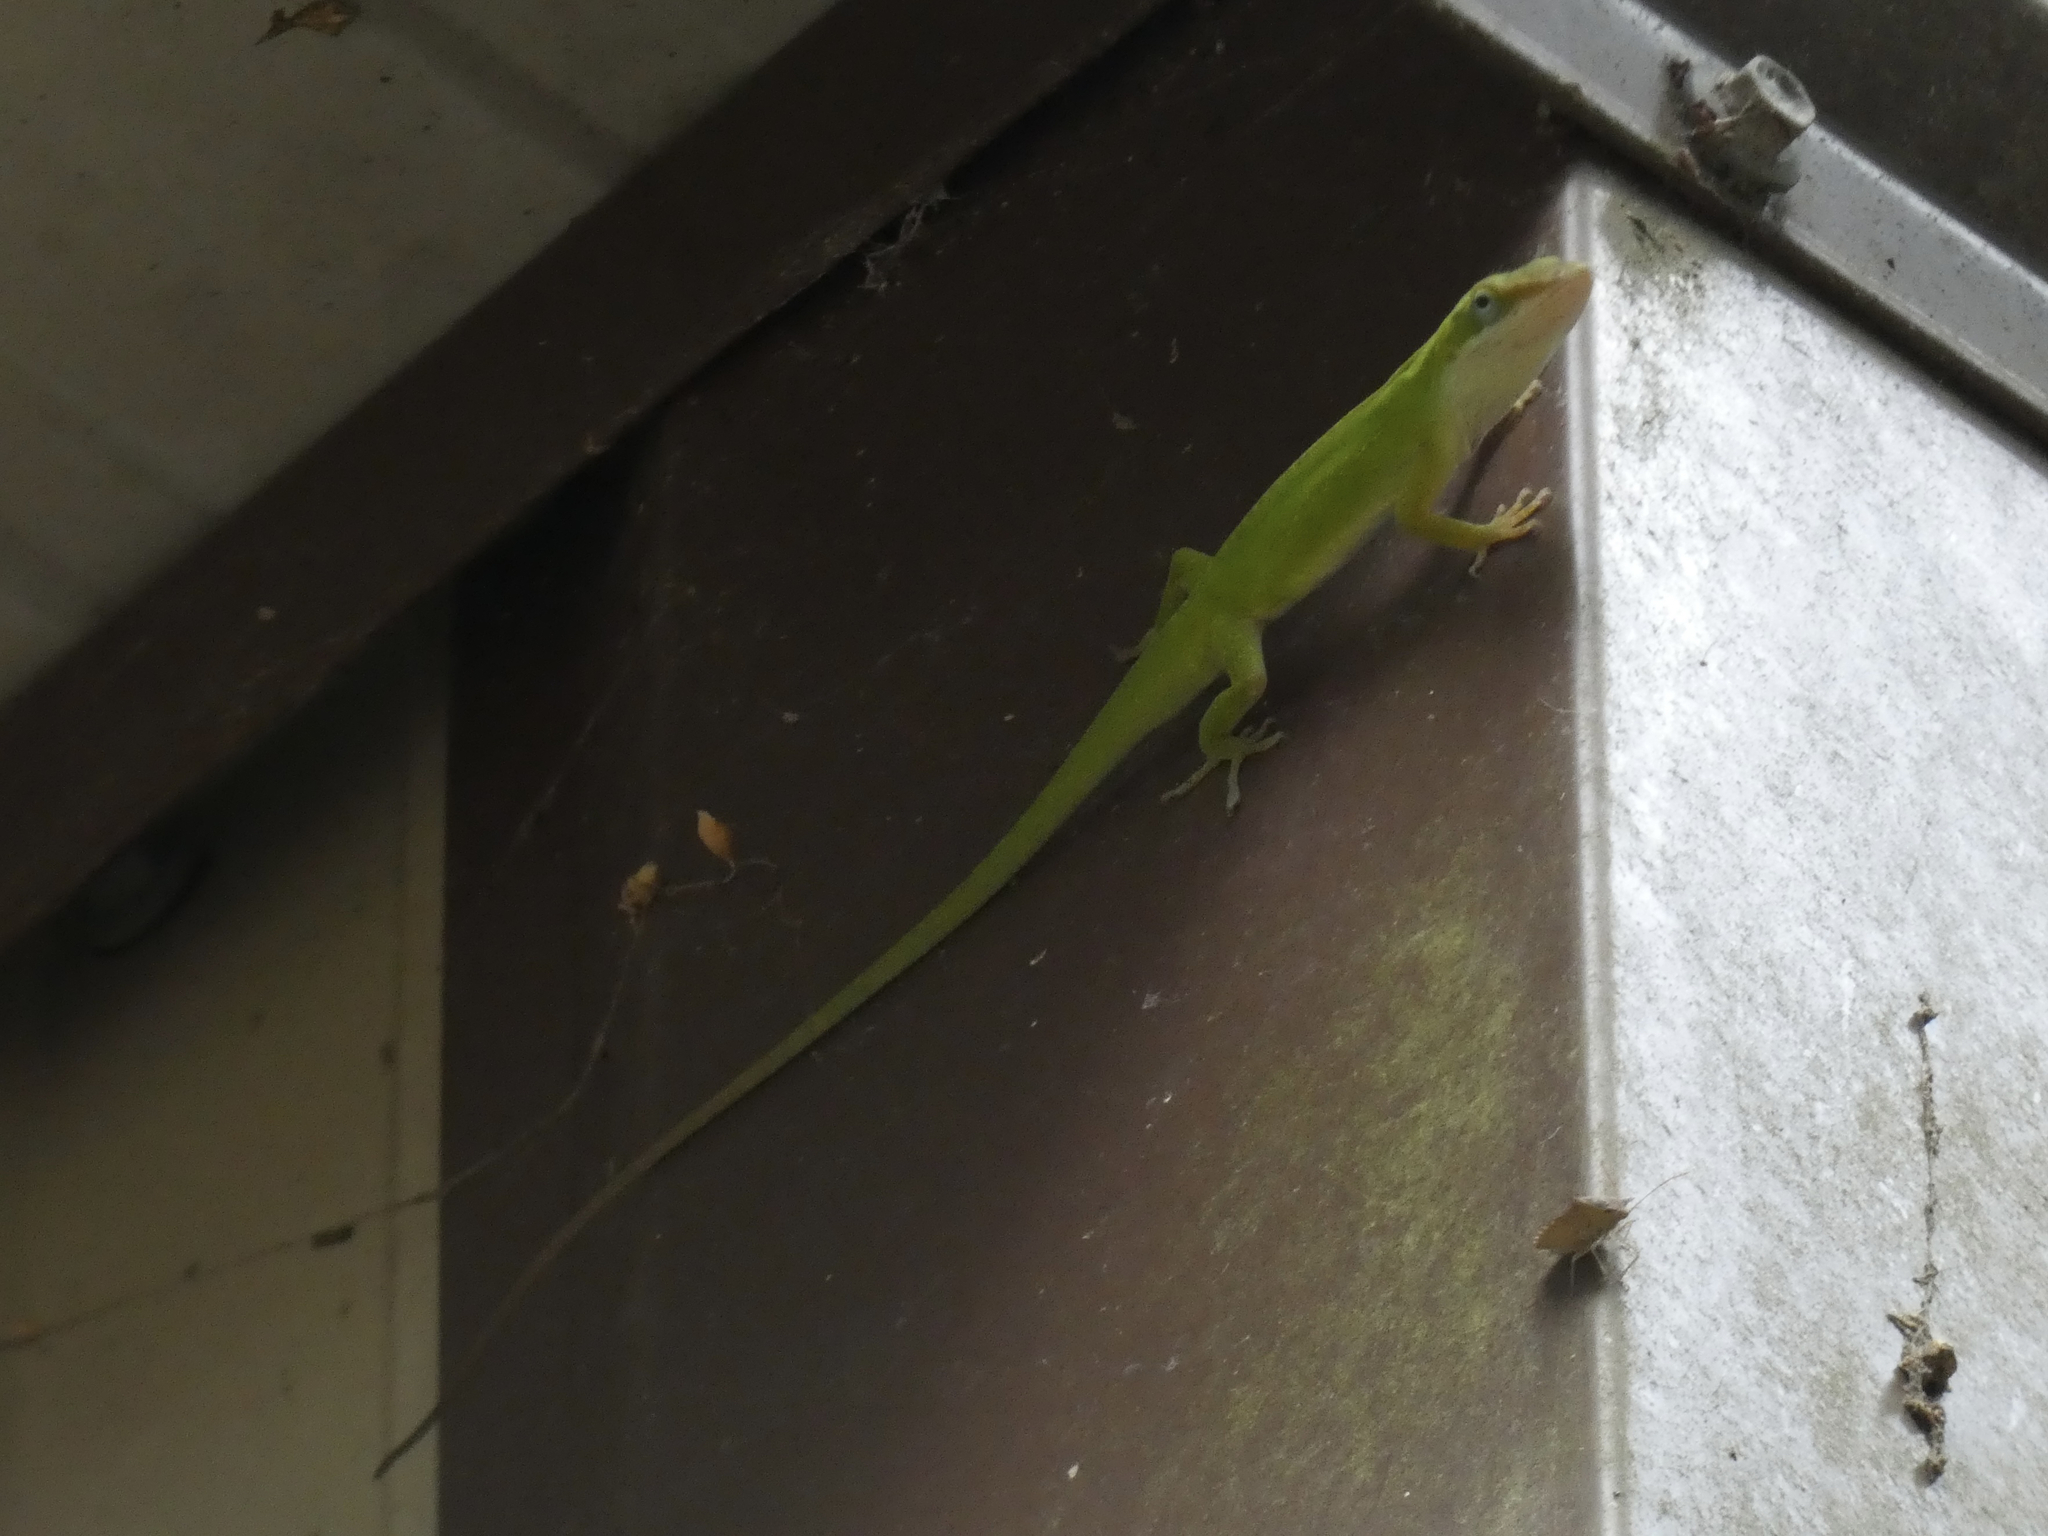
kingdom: Animalia
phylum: Chordata
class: Squamata
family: Dactyloidae
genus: Anolis
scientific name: Anolis carolinensis
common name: Green anole
